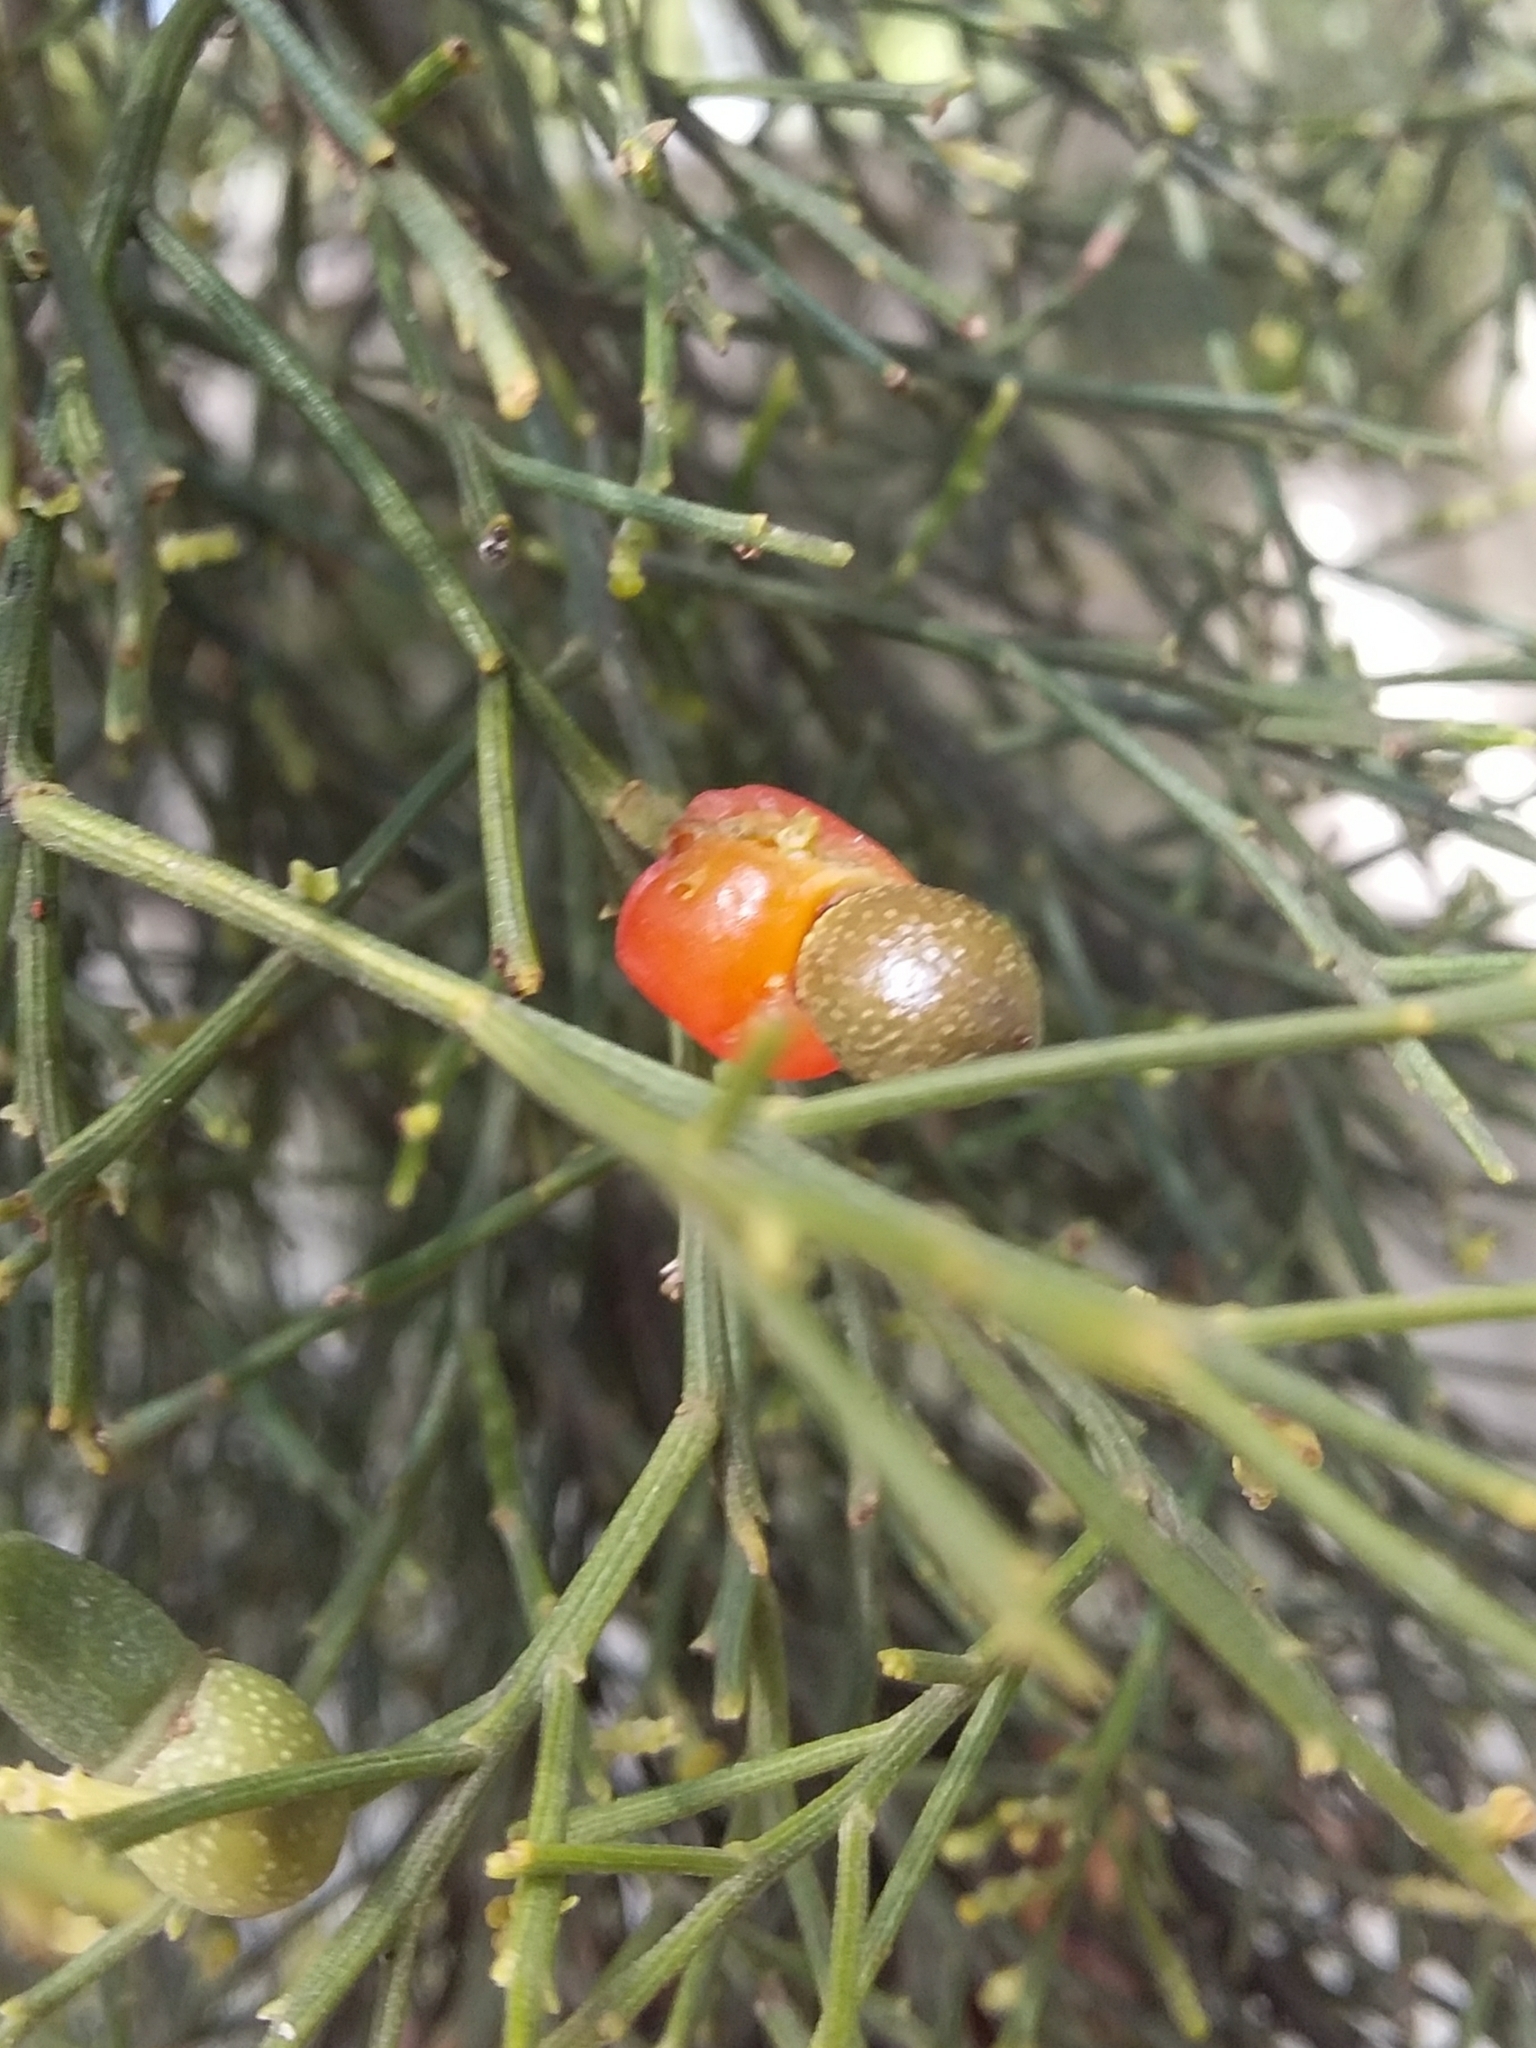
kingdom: Plantae
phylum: Tracheophyta
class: Magnoliopsida
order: Santalales
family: Santalaceae
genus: Exocarpos
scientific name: Exocarpos cupressiformis
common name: Cherry ballart
